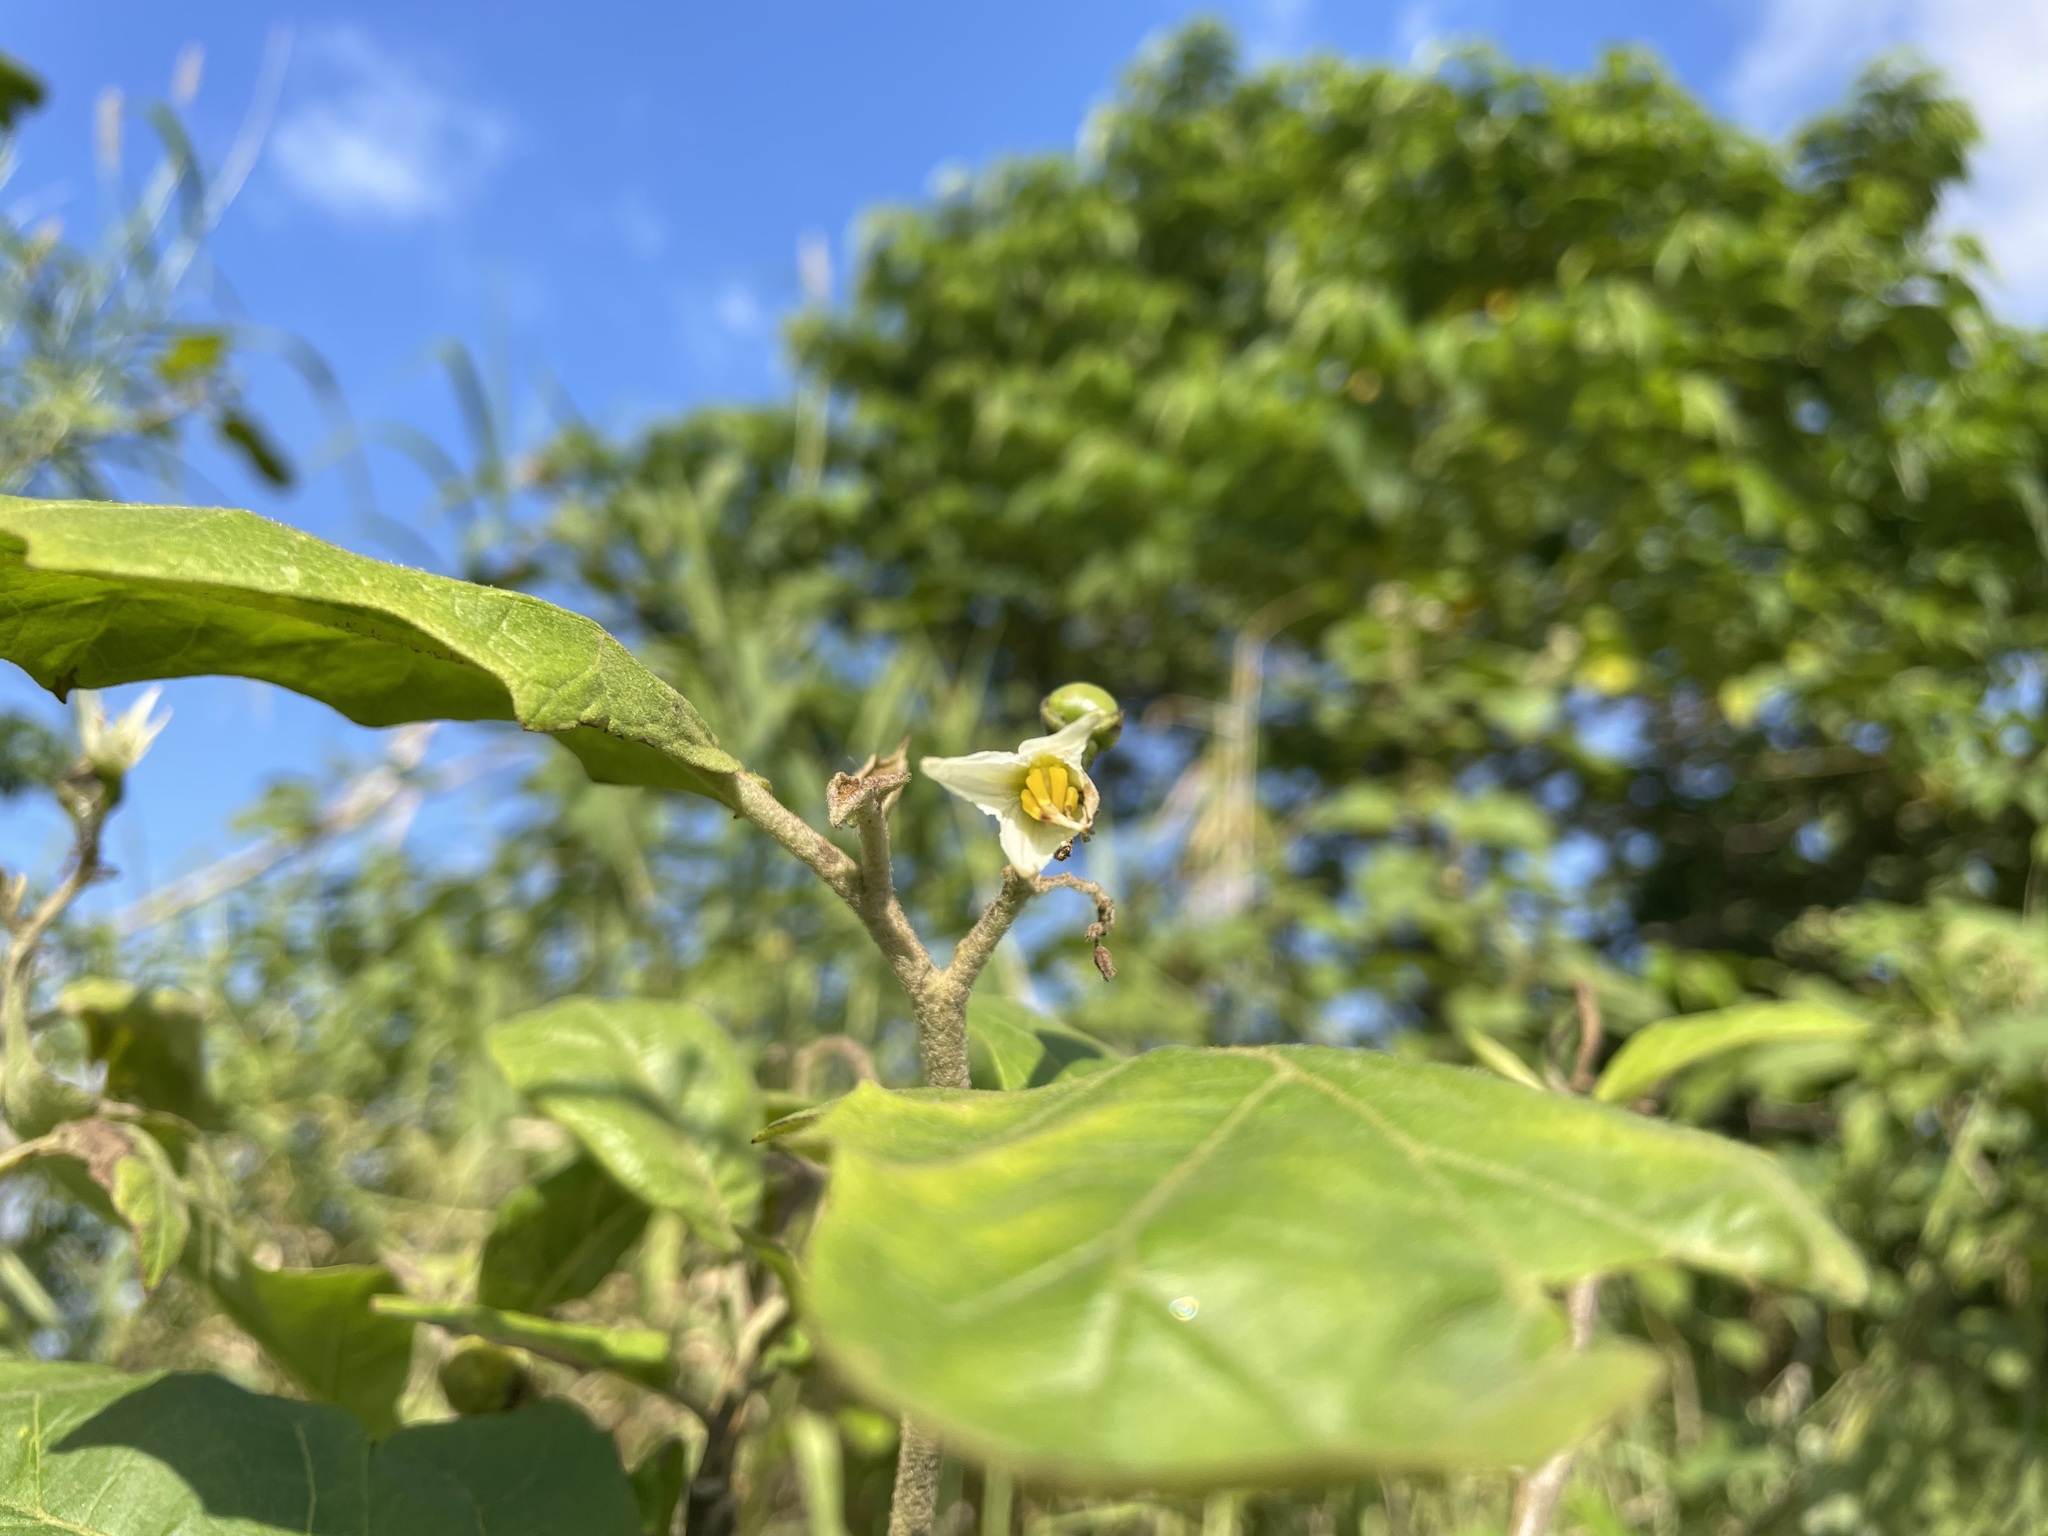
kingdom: Plantae
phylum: Tracheophyta
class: Magnoliopsida
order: Solanales
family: Solanaceae
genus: Solanum
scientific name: Solanum torvum
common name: Turkey berry
